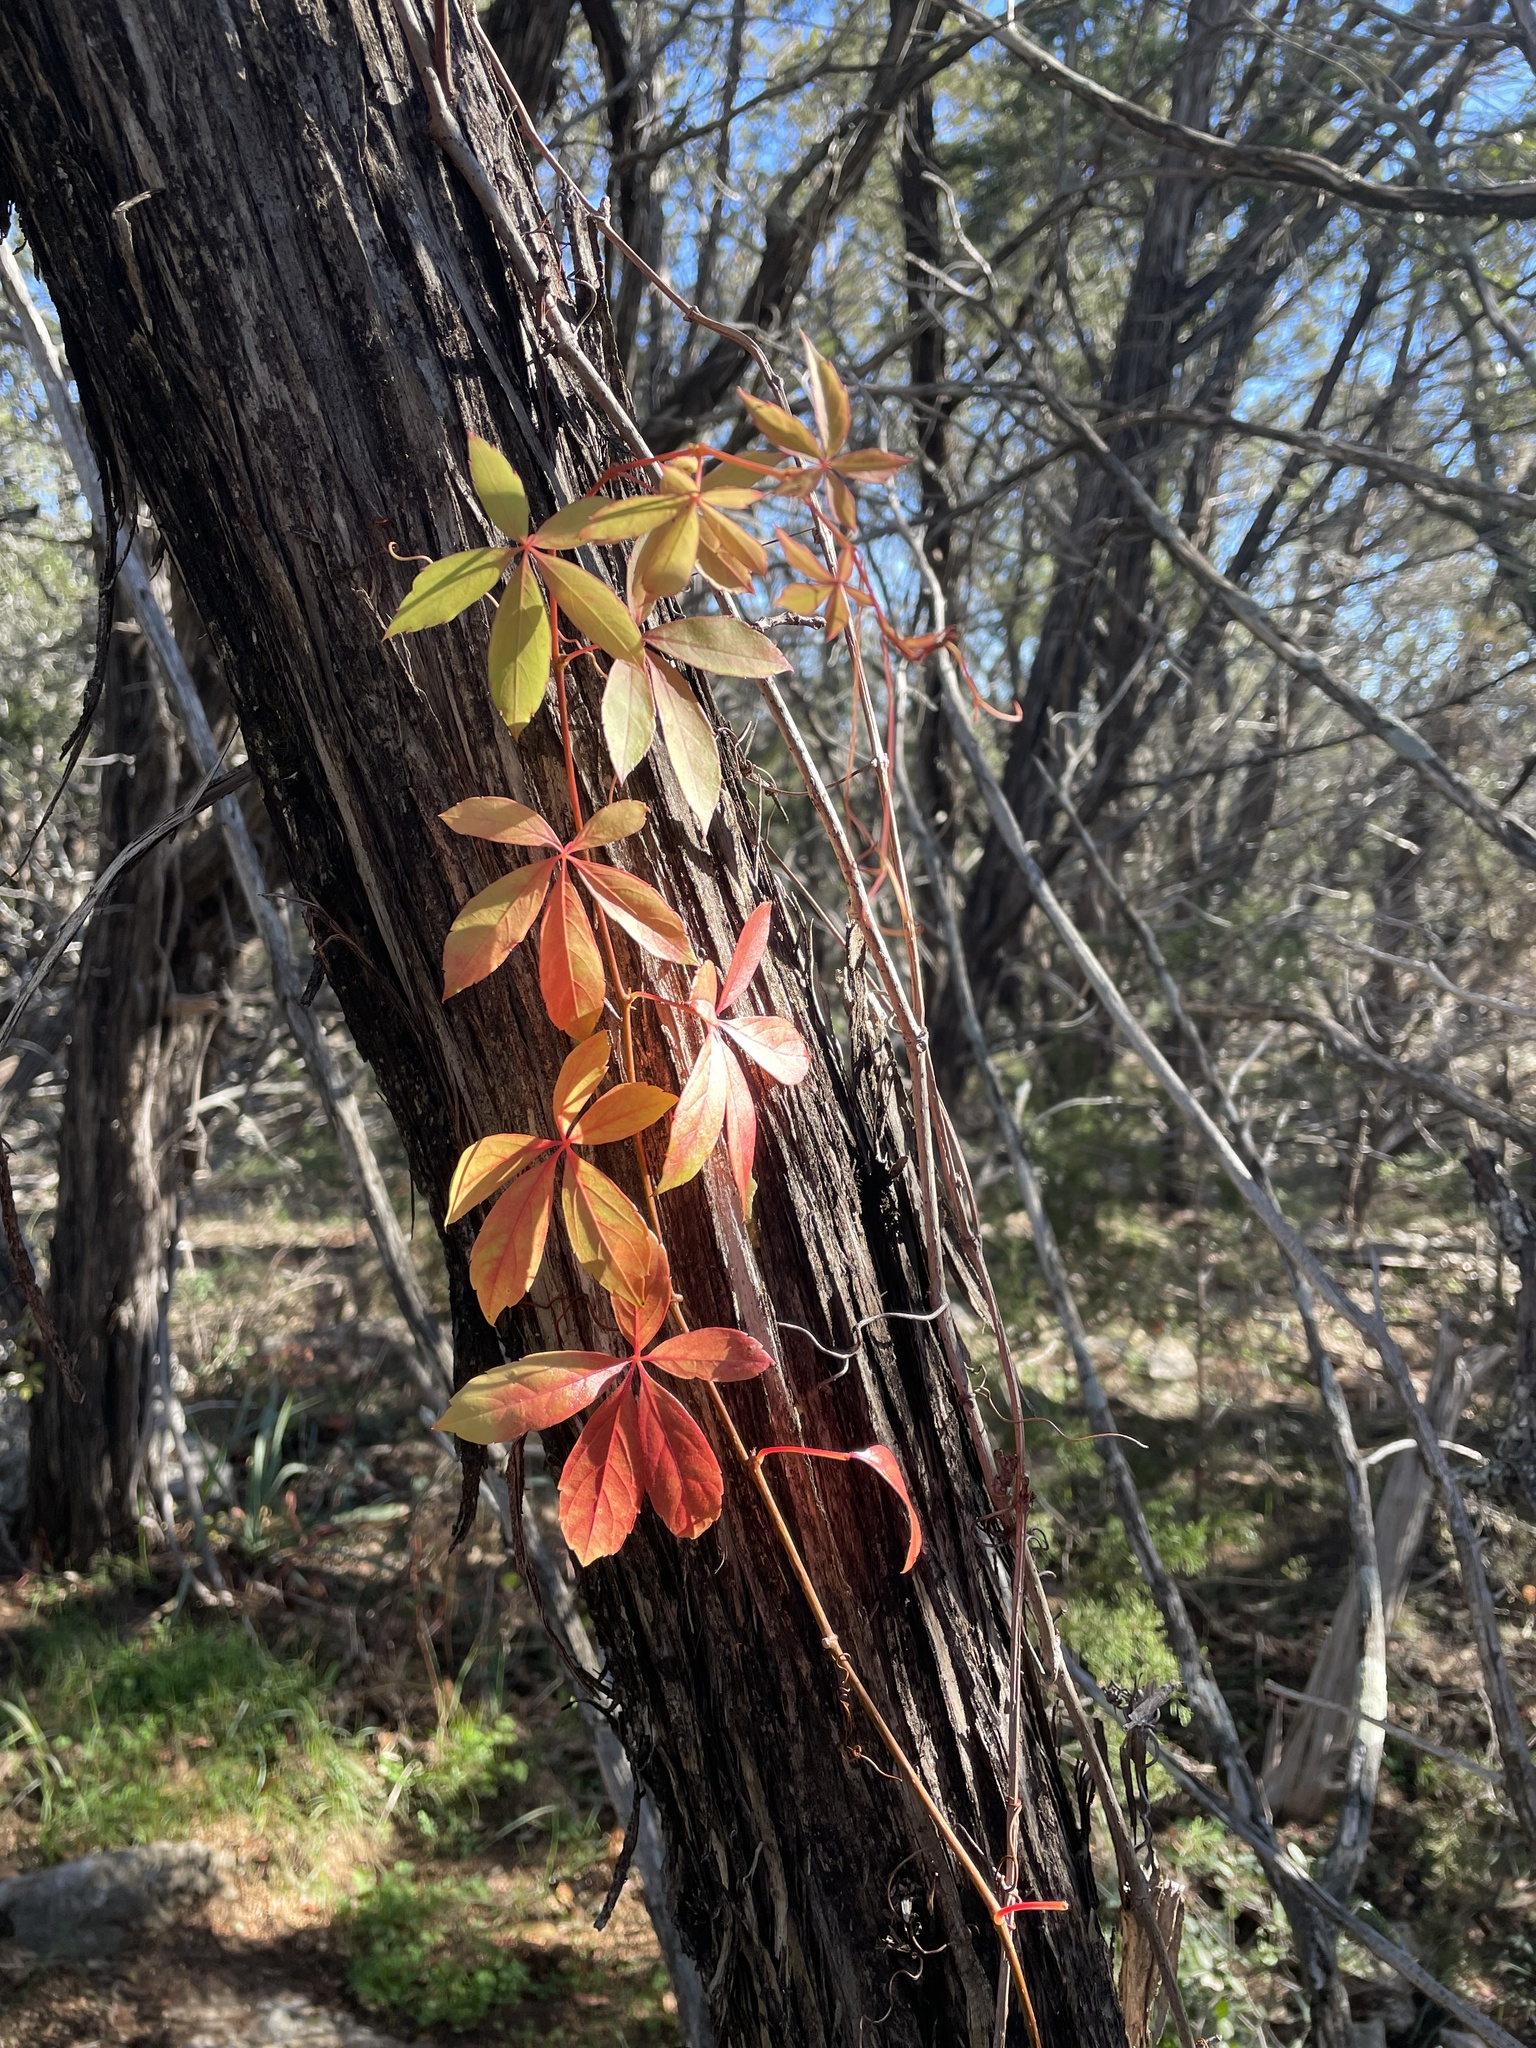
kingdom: Plantae
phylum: Tracheophyta
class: Magnoliopsida
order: Vitales
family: Vitaceae
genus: Parthenocissus
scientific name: Parthenocissus quinquefolia
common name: Virginia-creeper
